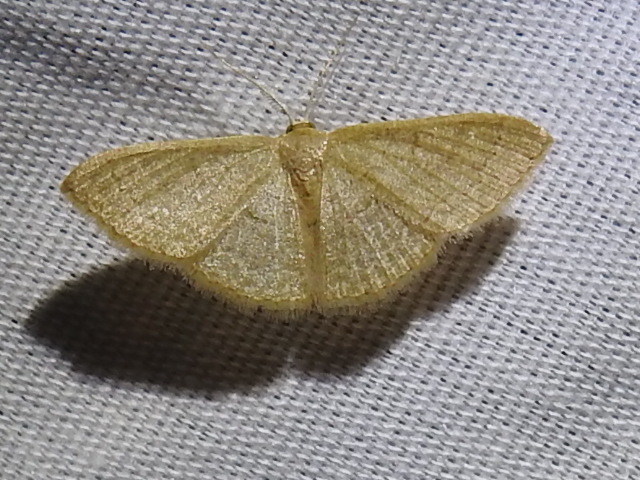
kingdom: Animalia
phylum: Arthropoda
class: Insecta
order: Lepidoptera
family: Geometridae
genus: Pleuroprucha
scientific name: Pleuroprucha insulsaria
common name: Common tan wave
